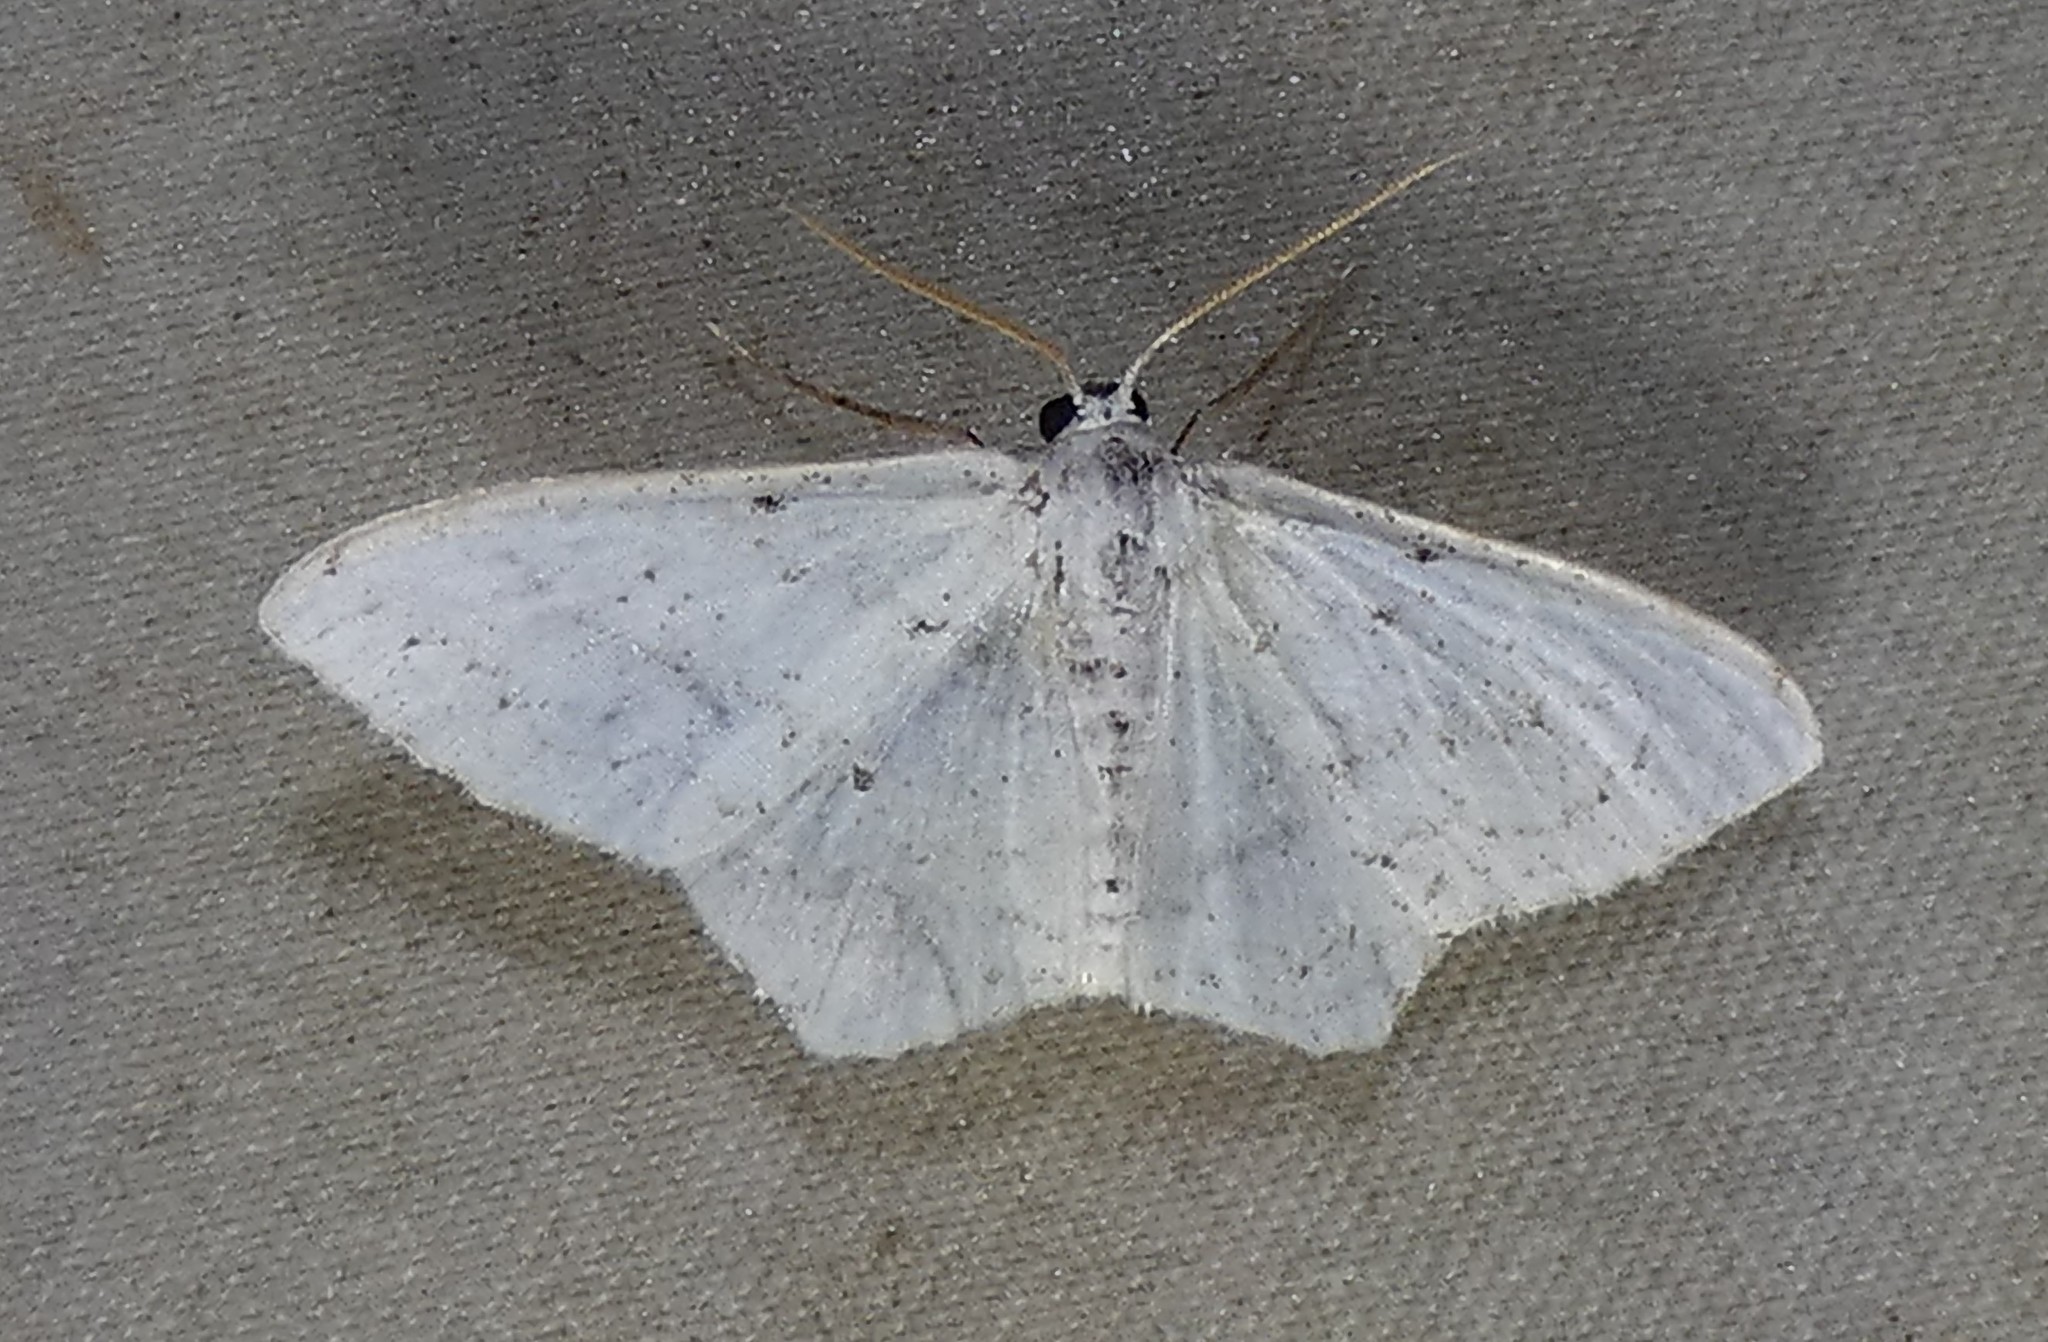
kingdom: Animalia
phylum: Arthropoda
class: Insecta
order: Lepidoptera
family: Geometridae
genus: Idaea
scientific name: Idaea tacturata
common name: Dot-lined wave
